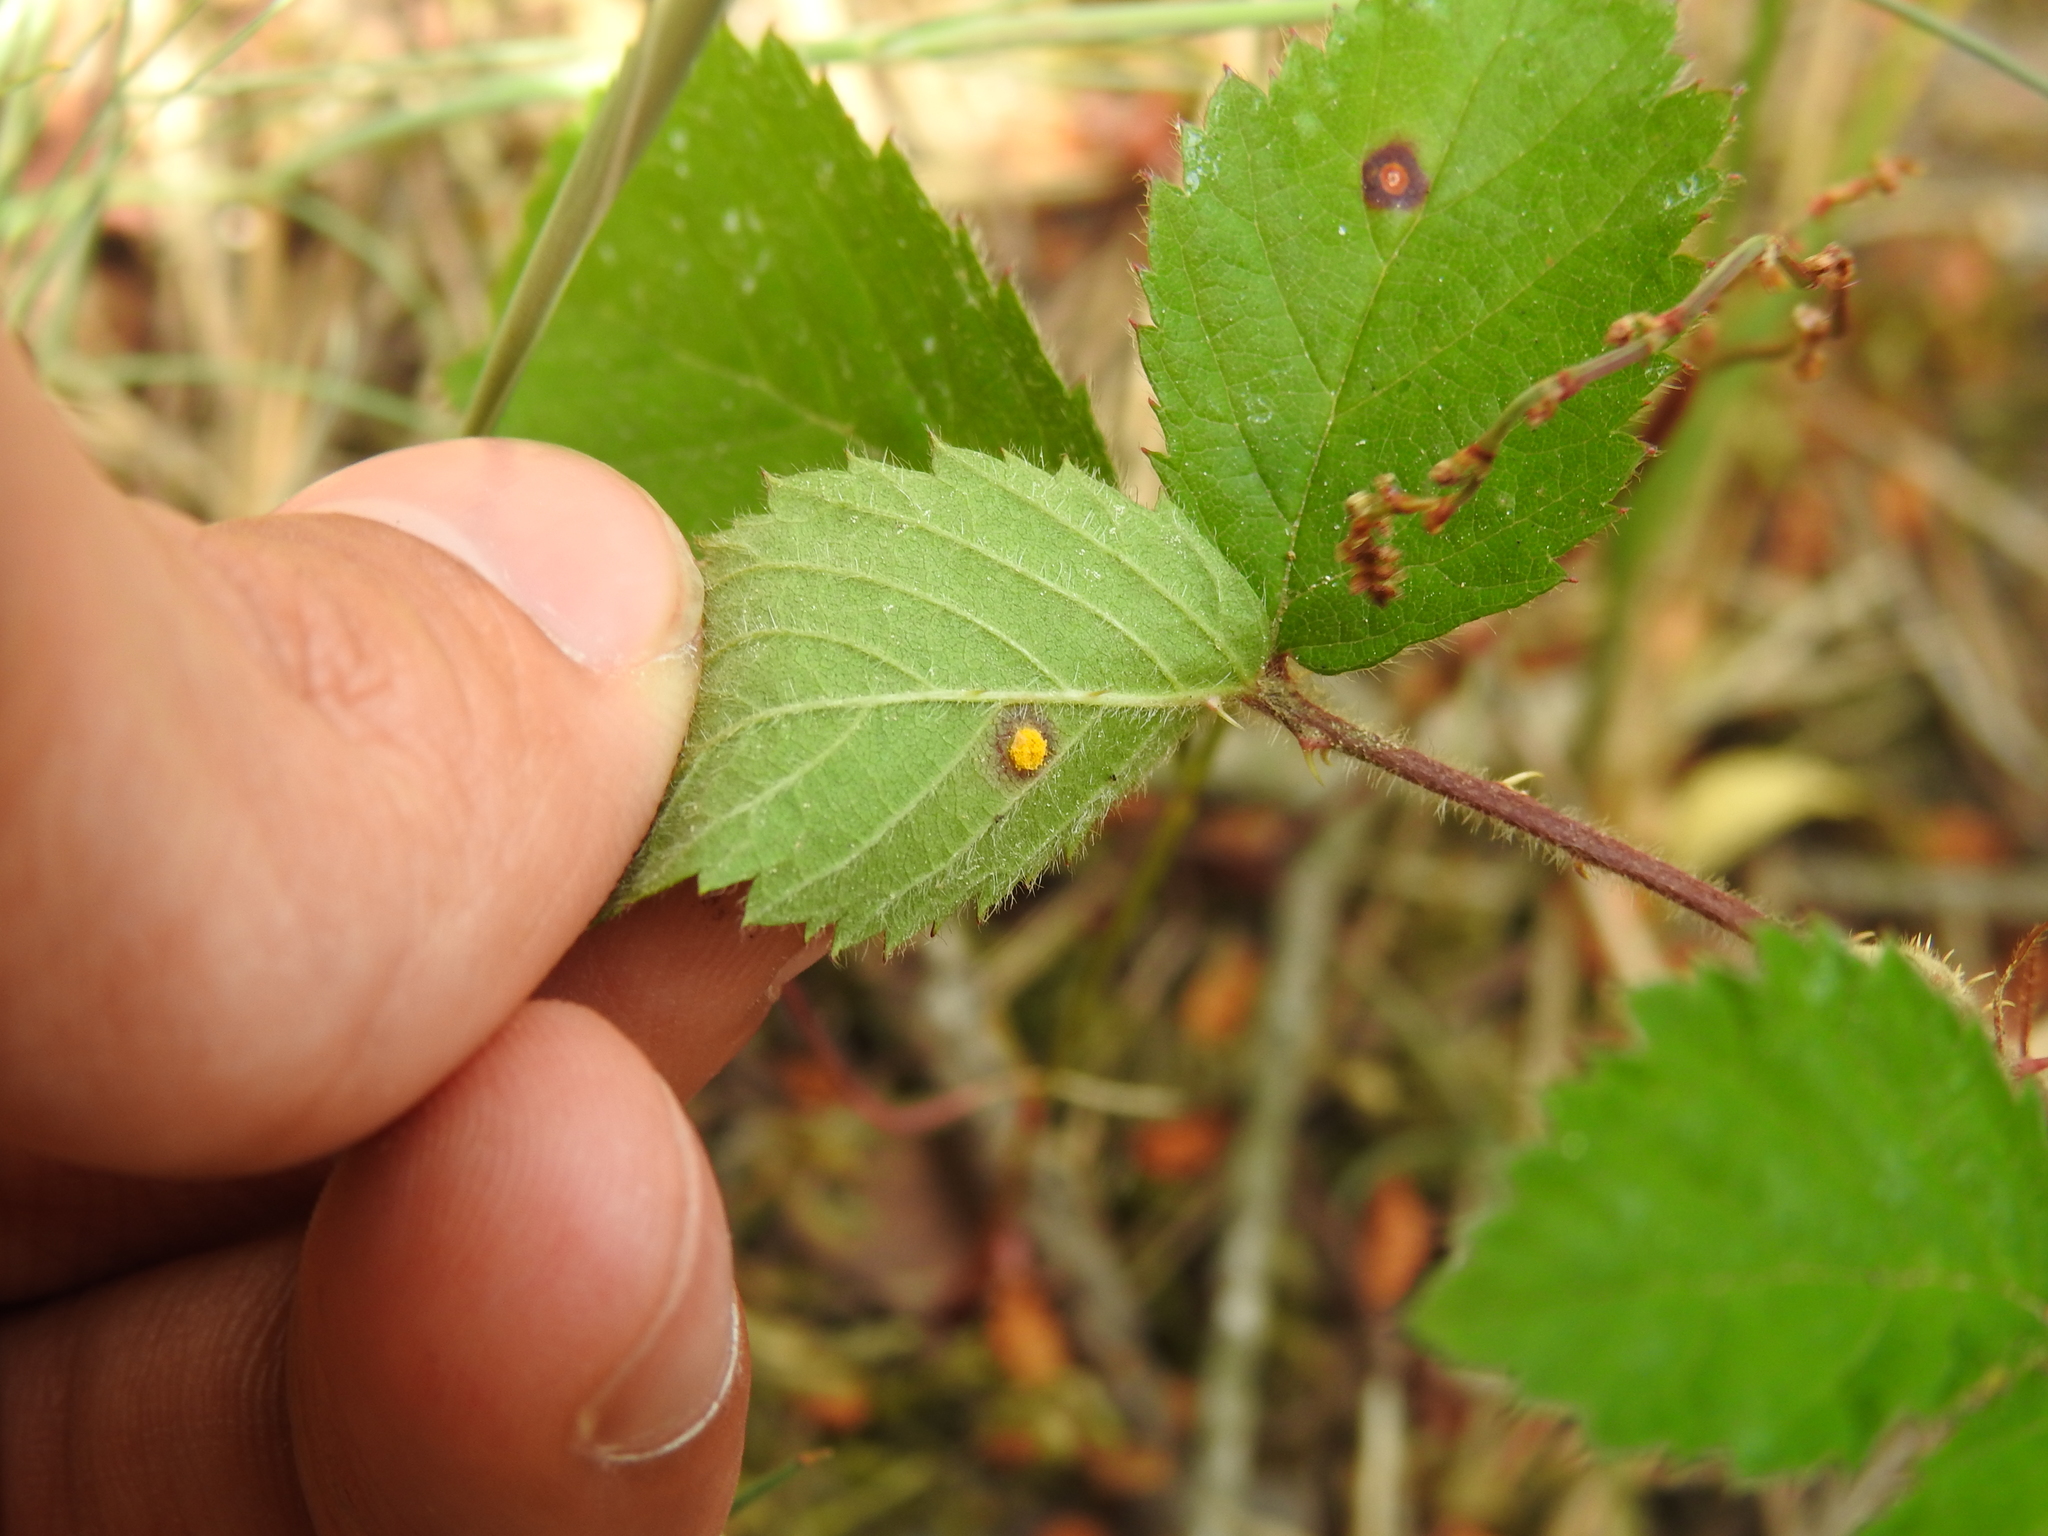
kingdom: Fungi
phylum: Basidiomycota
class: Pucciniomycetes
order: Pucciniales
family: Phragmidiaceae
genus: Phragmidium
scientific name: Phragmidium violaceum
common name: Violet bramble rust
